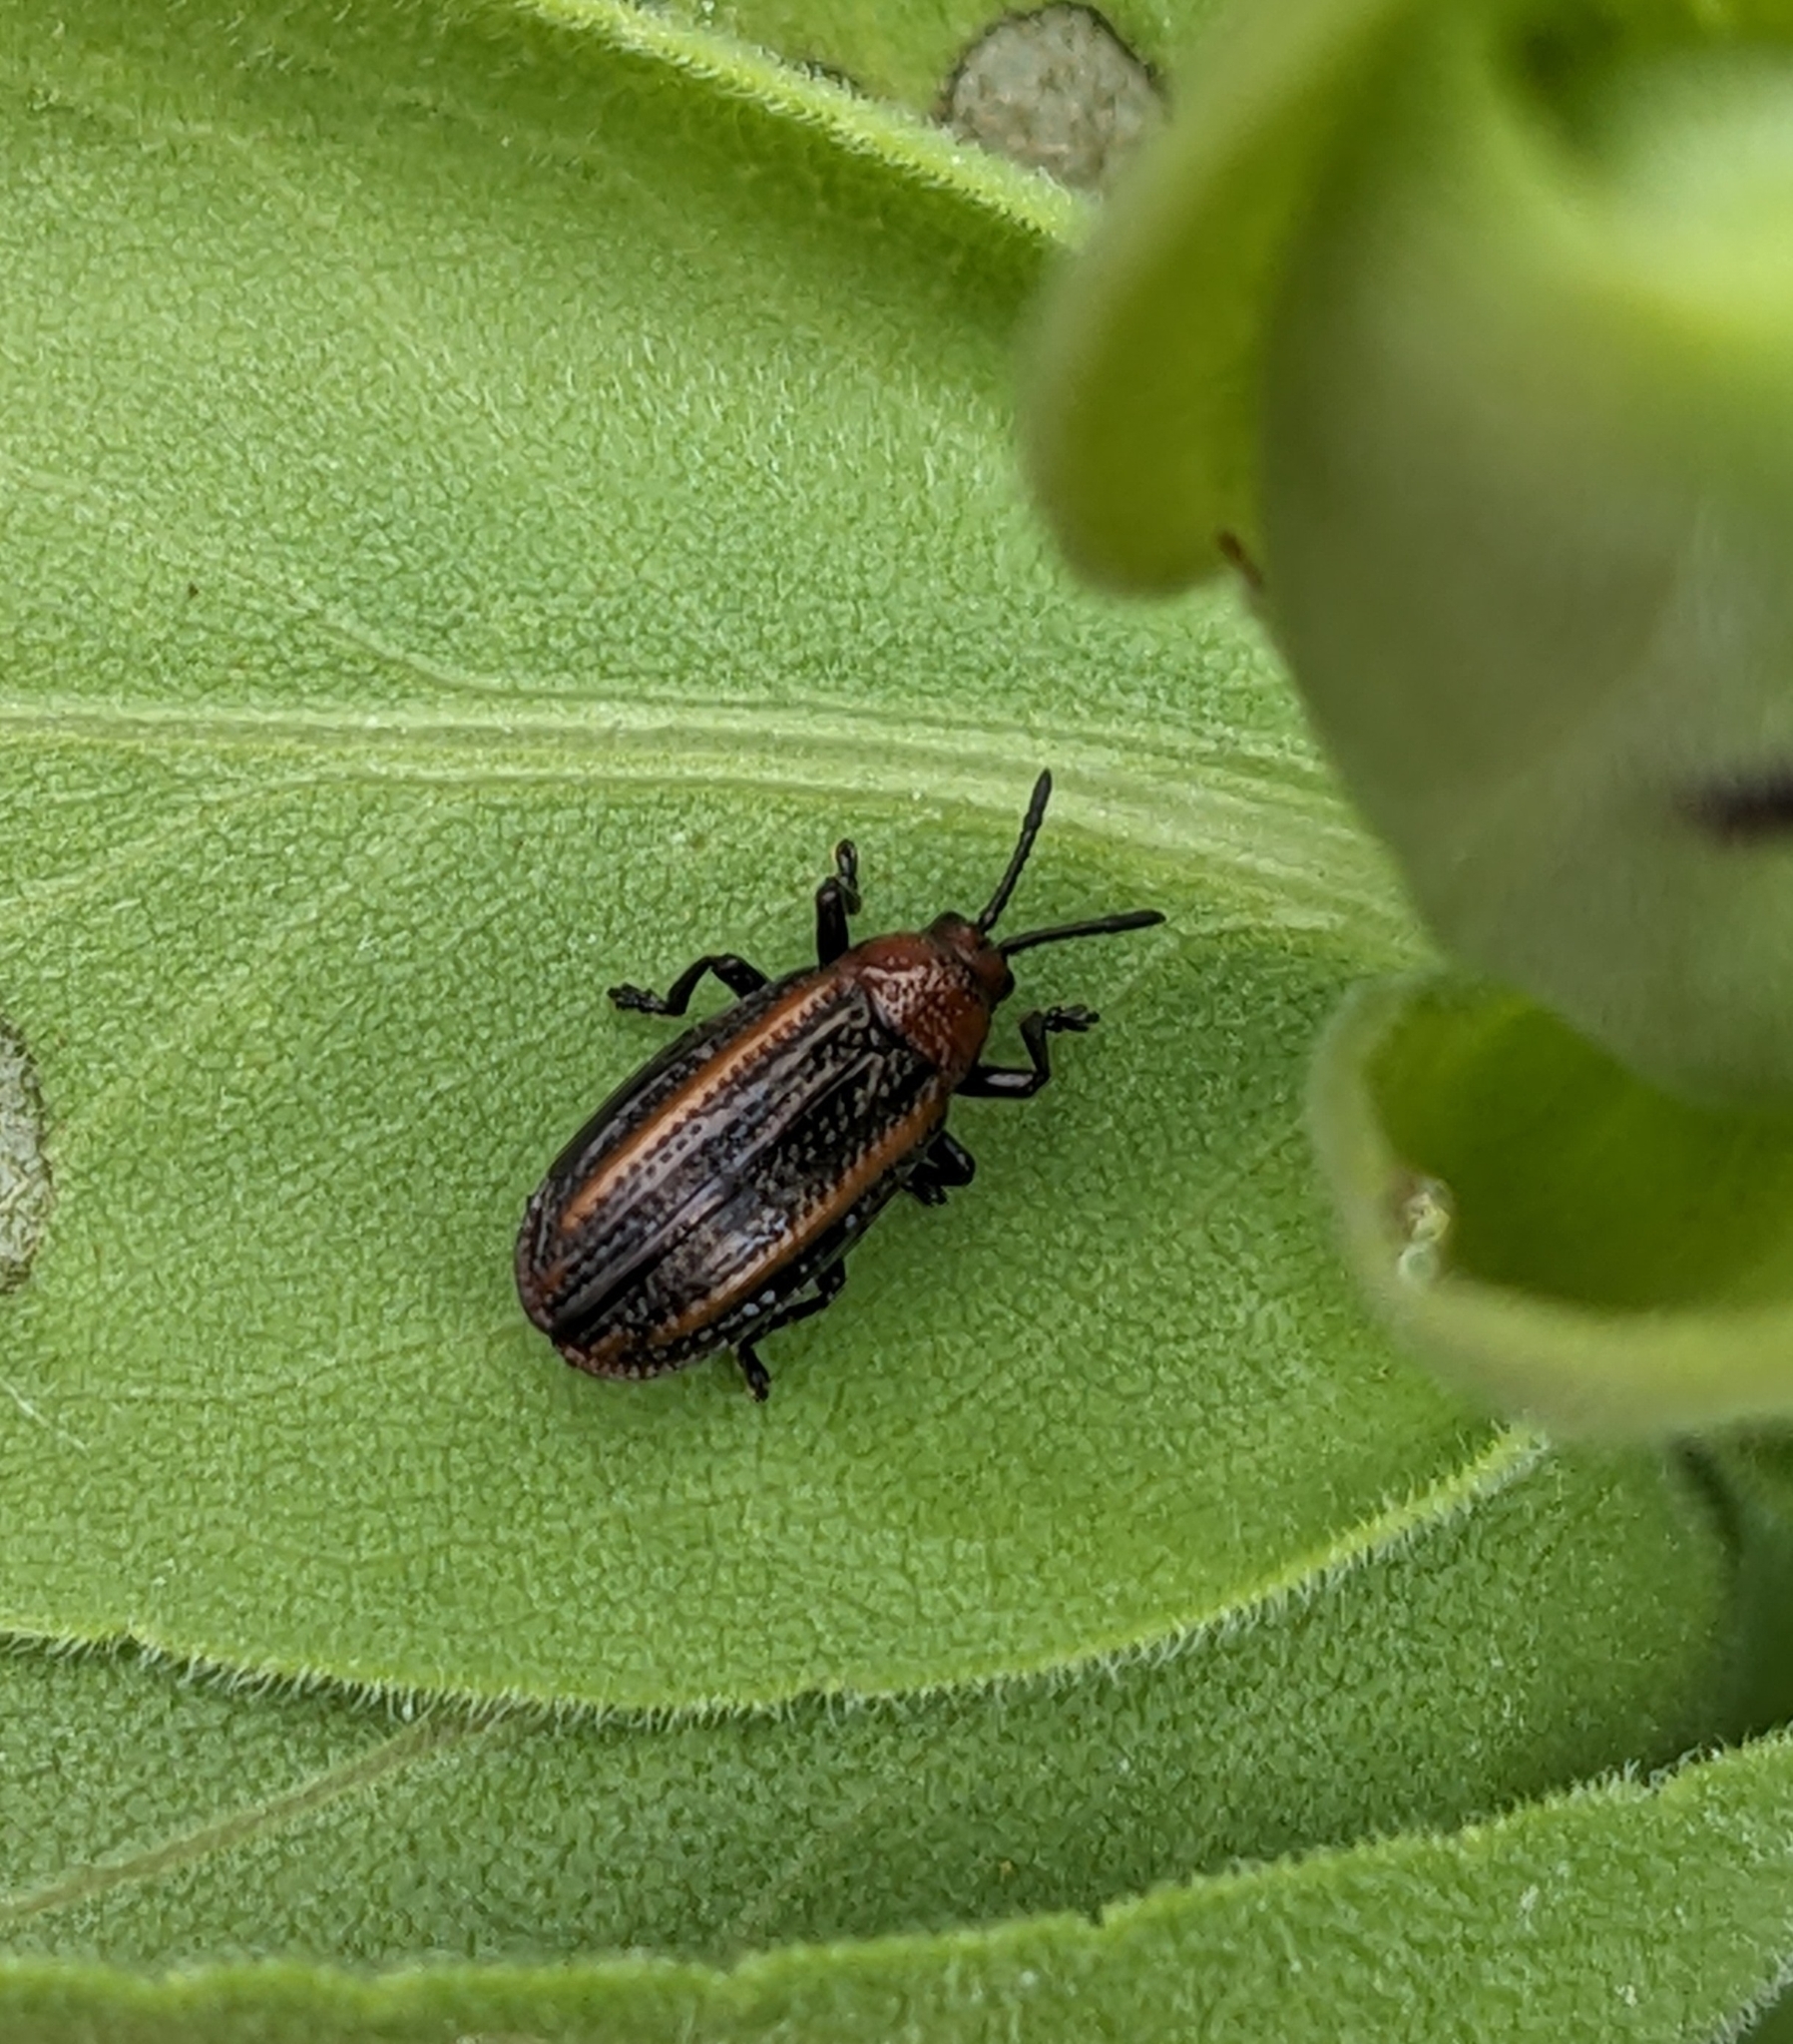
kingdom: Animalia
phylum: Arthropoda
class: Insecta
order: Coleoptera
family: Chrysomelidae
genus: Microrhopala
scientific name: Microrhopala vittata
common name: Goldenrod leaf miner beetle
